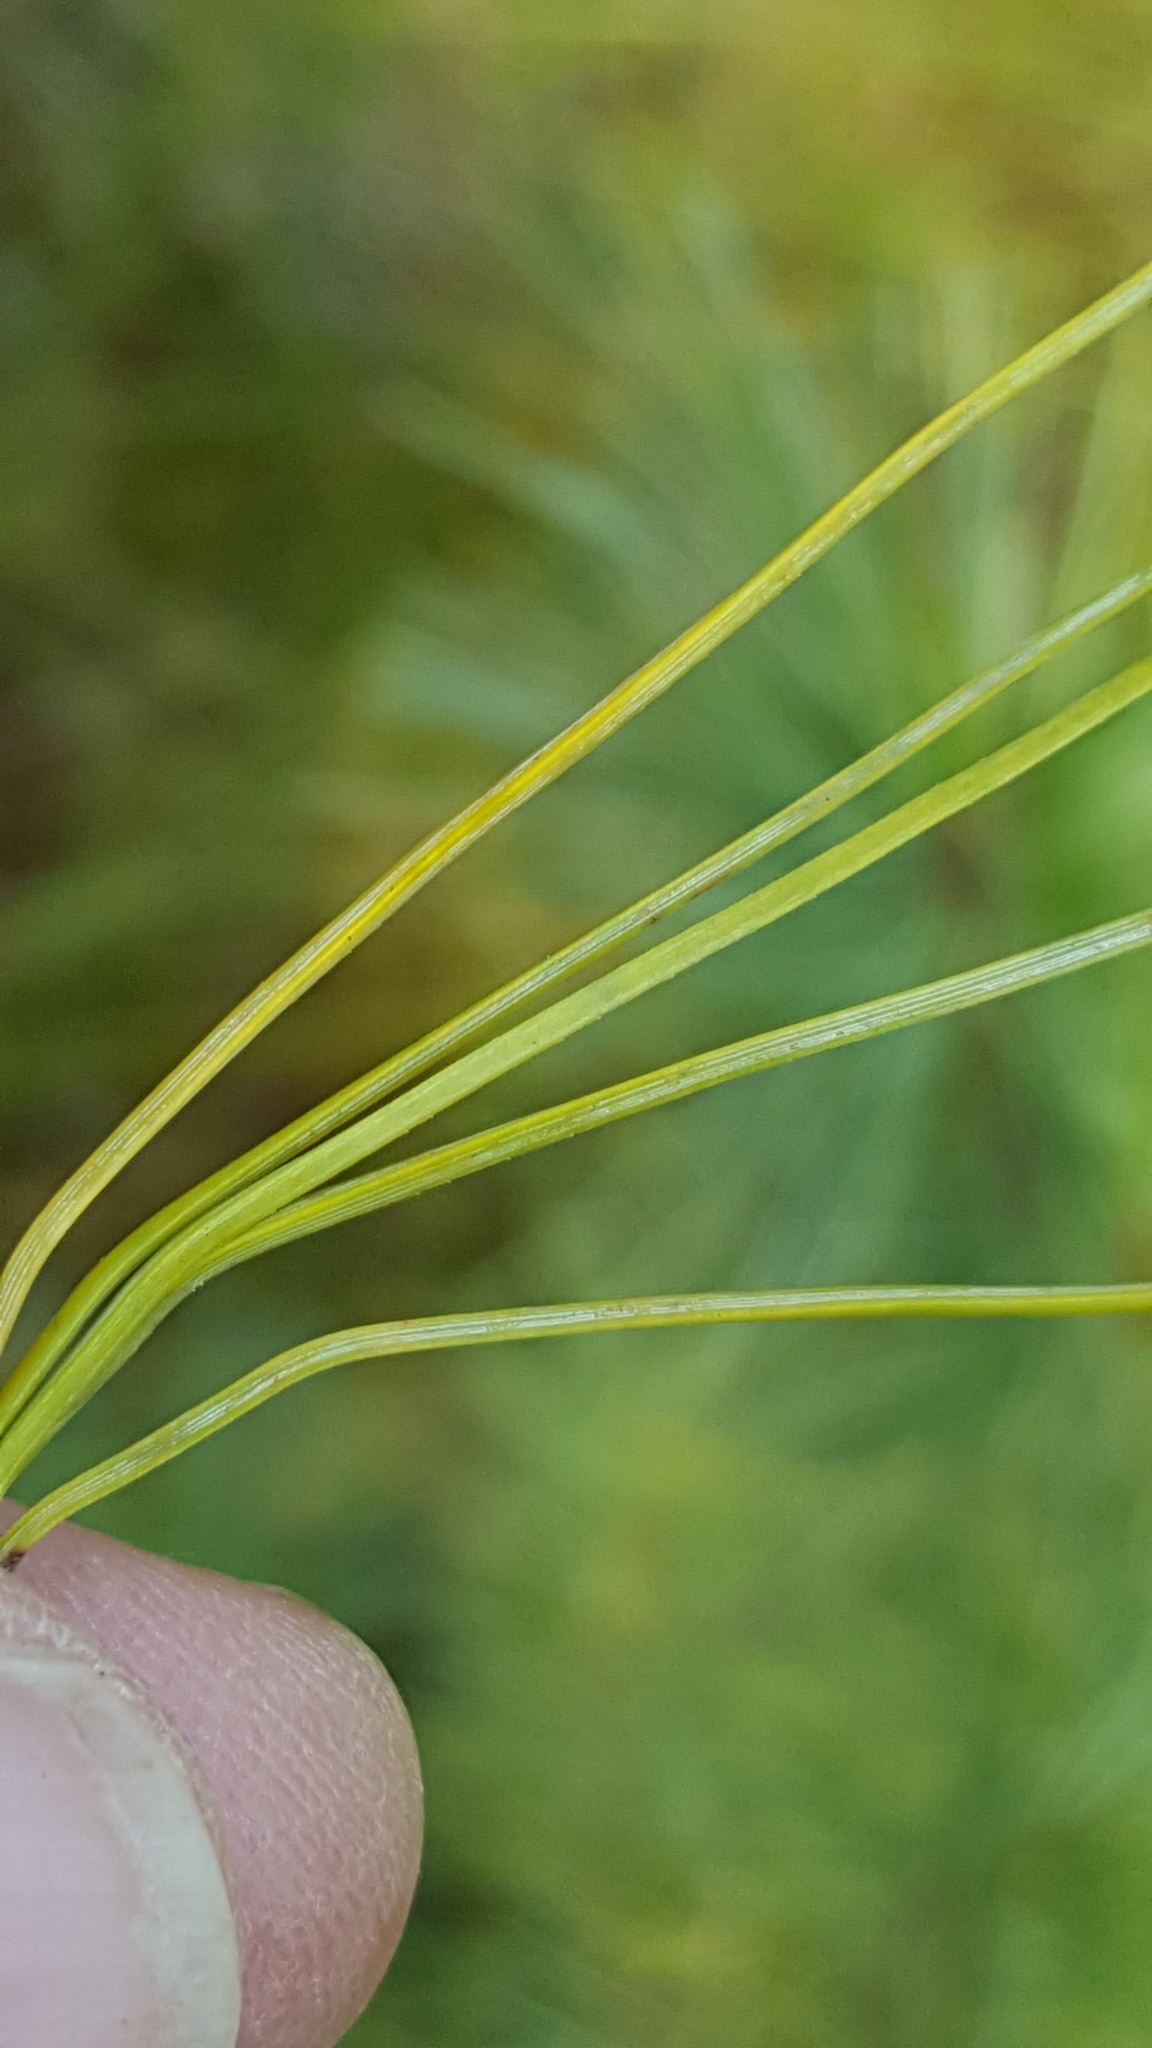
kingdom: Plantae
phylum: Tracheophyta
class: Pinopsida
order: Pinales
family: Pinaceae
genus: Pinus
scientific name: Pinus strobus
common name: Weymouth pine
